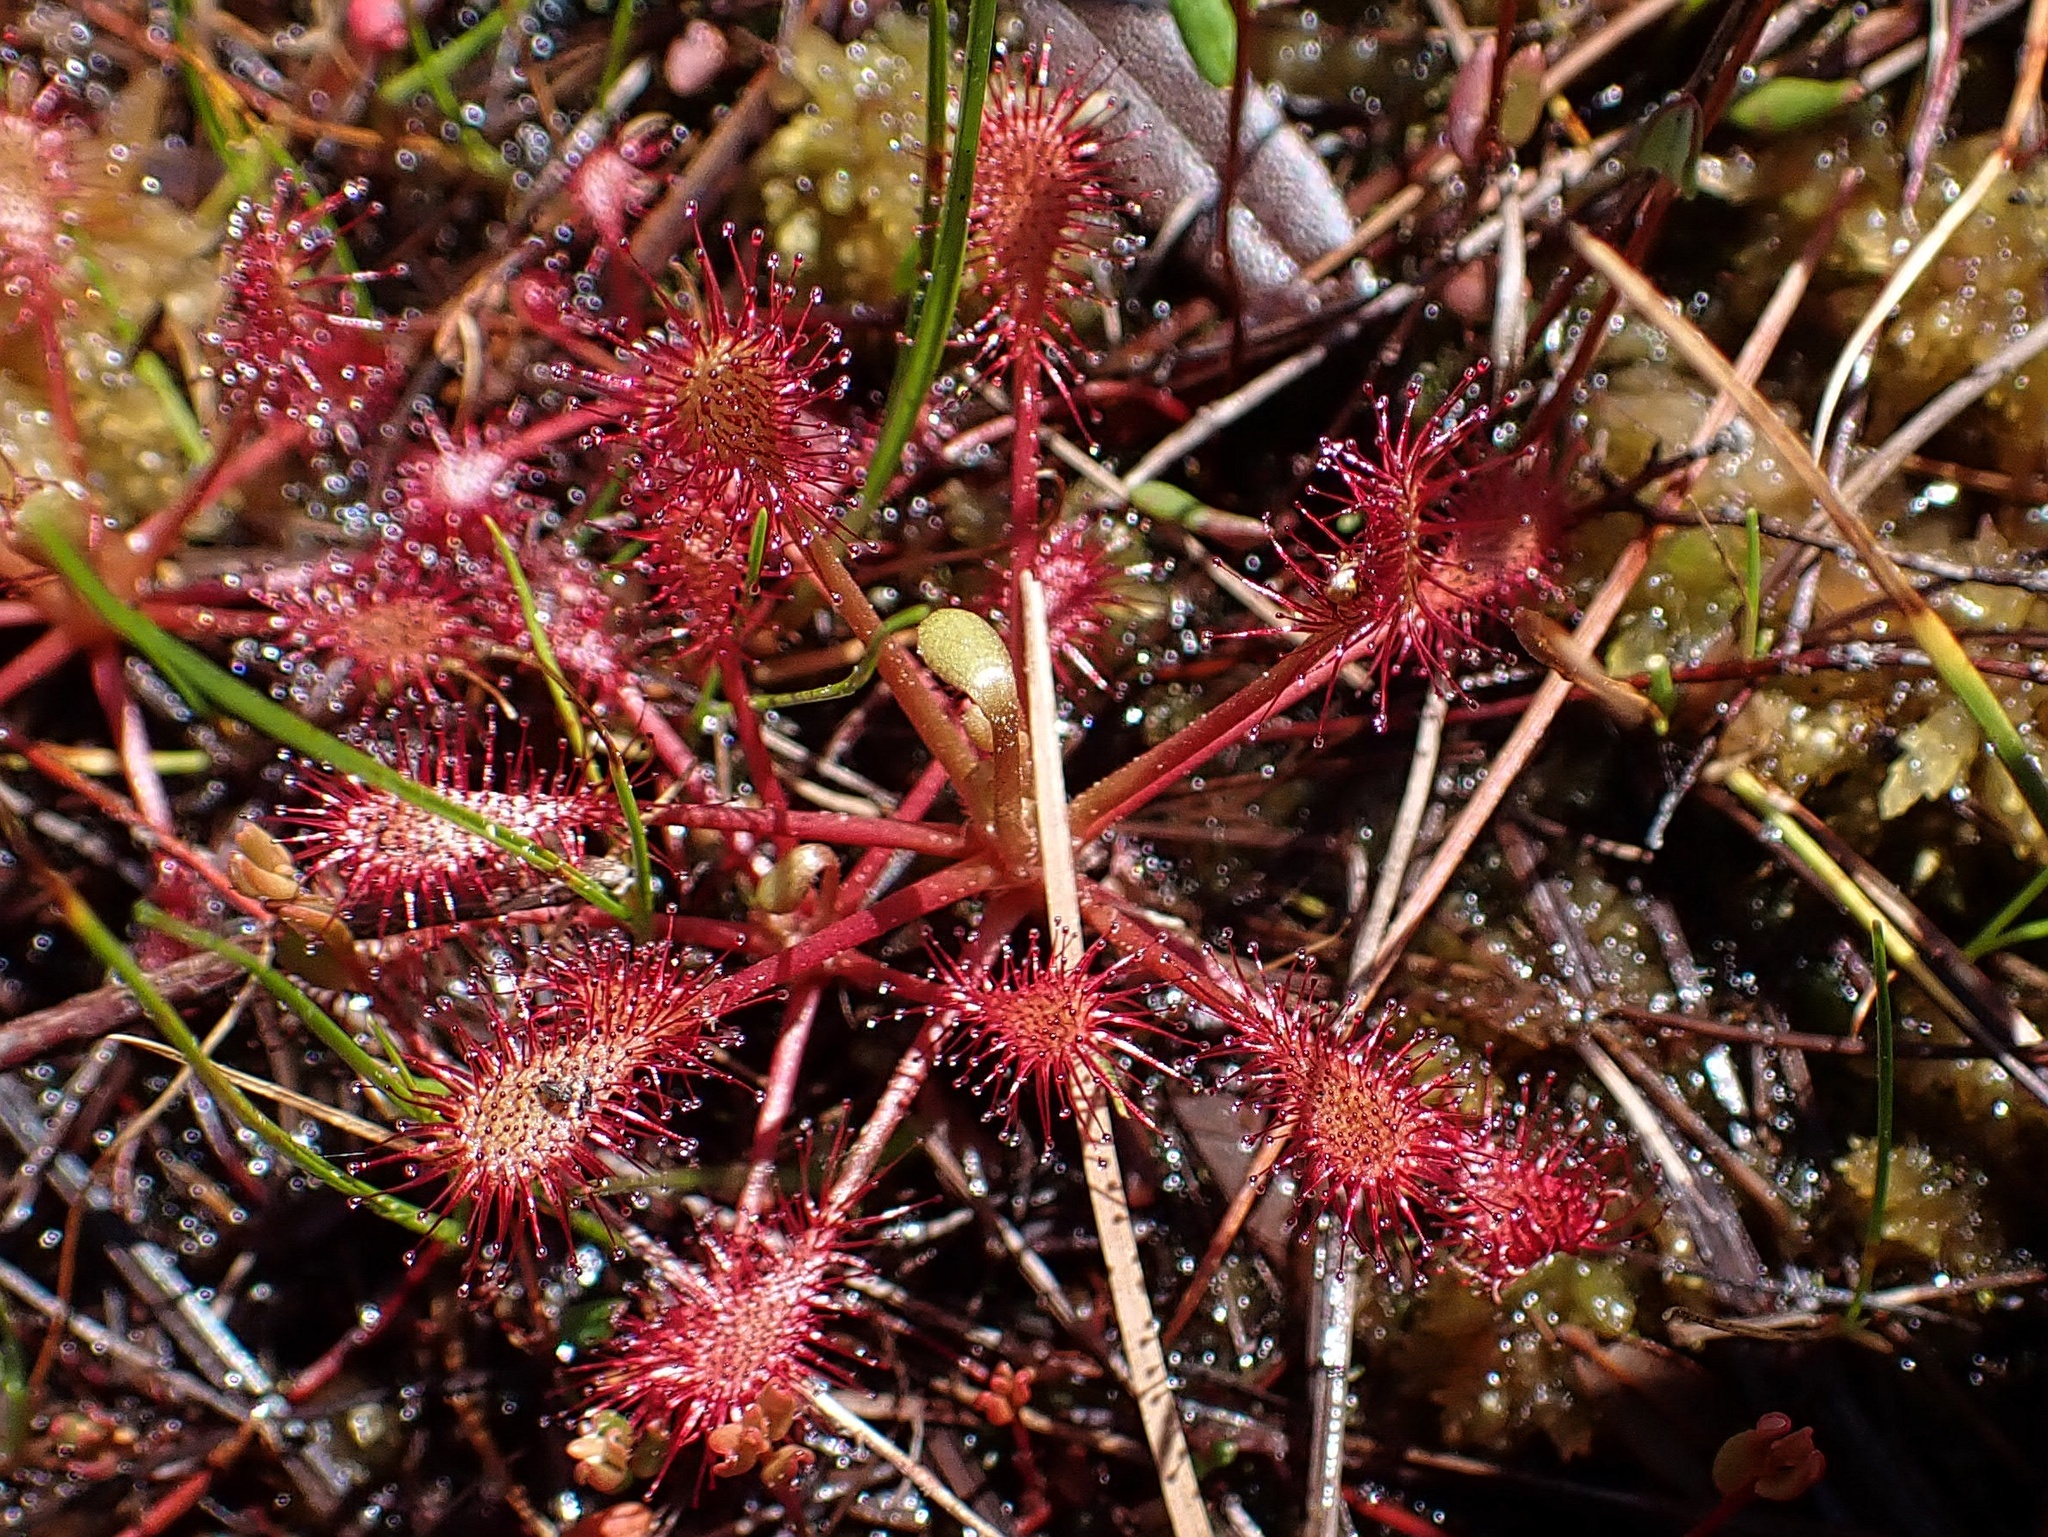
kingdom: Plantae
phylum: Tracheophyta
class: Magnoliopsida
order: Caryophyllales
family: Droseraceae
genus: Drosera
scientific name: Drosera intermedia
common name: Oblong-leaved sundew
